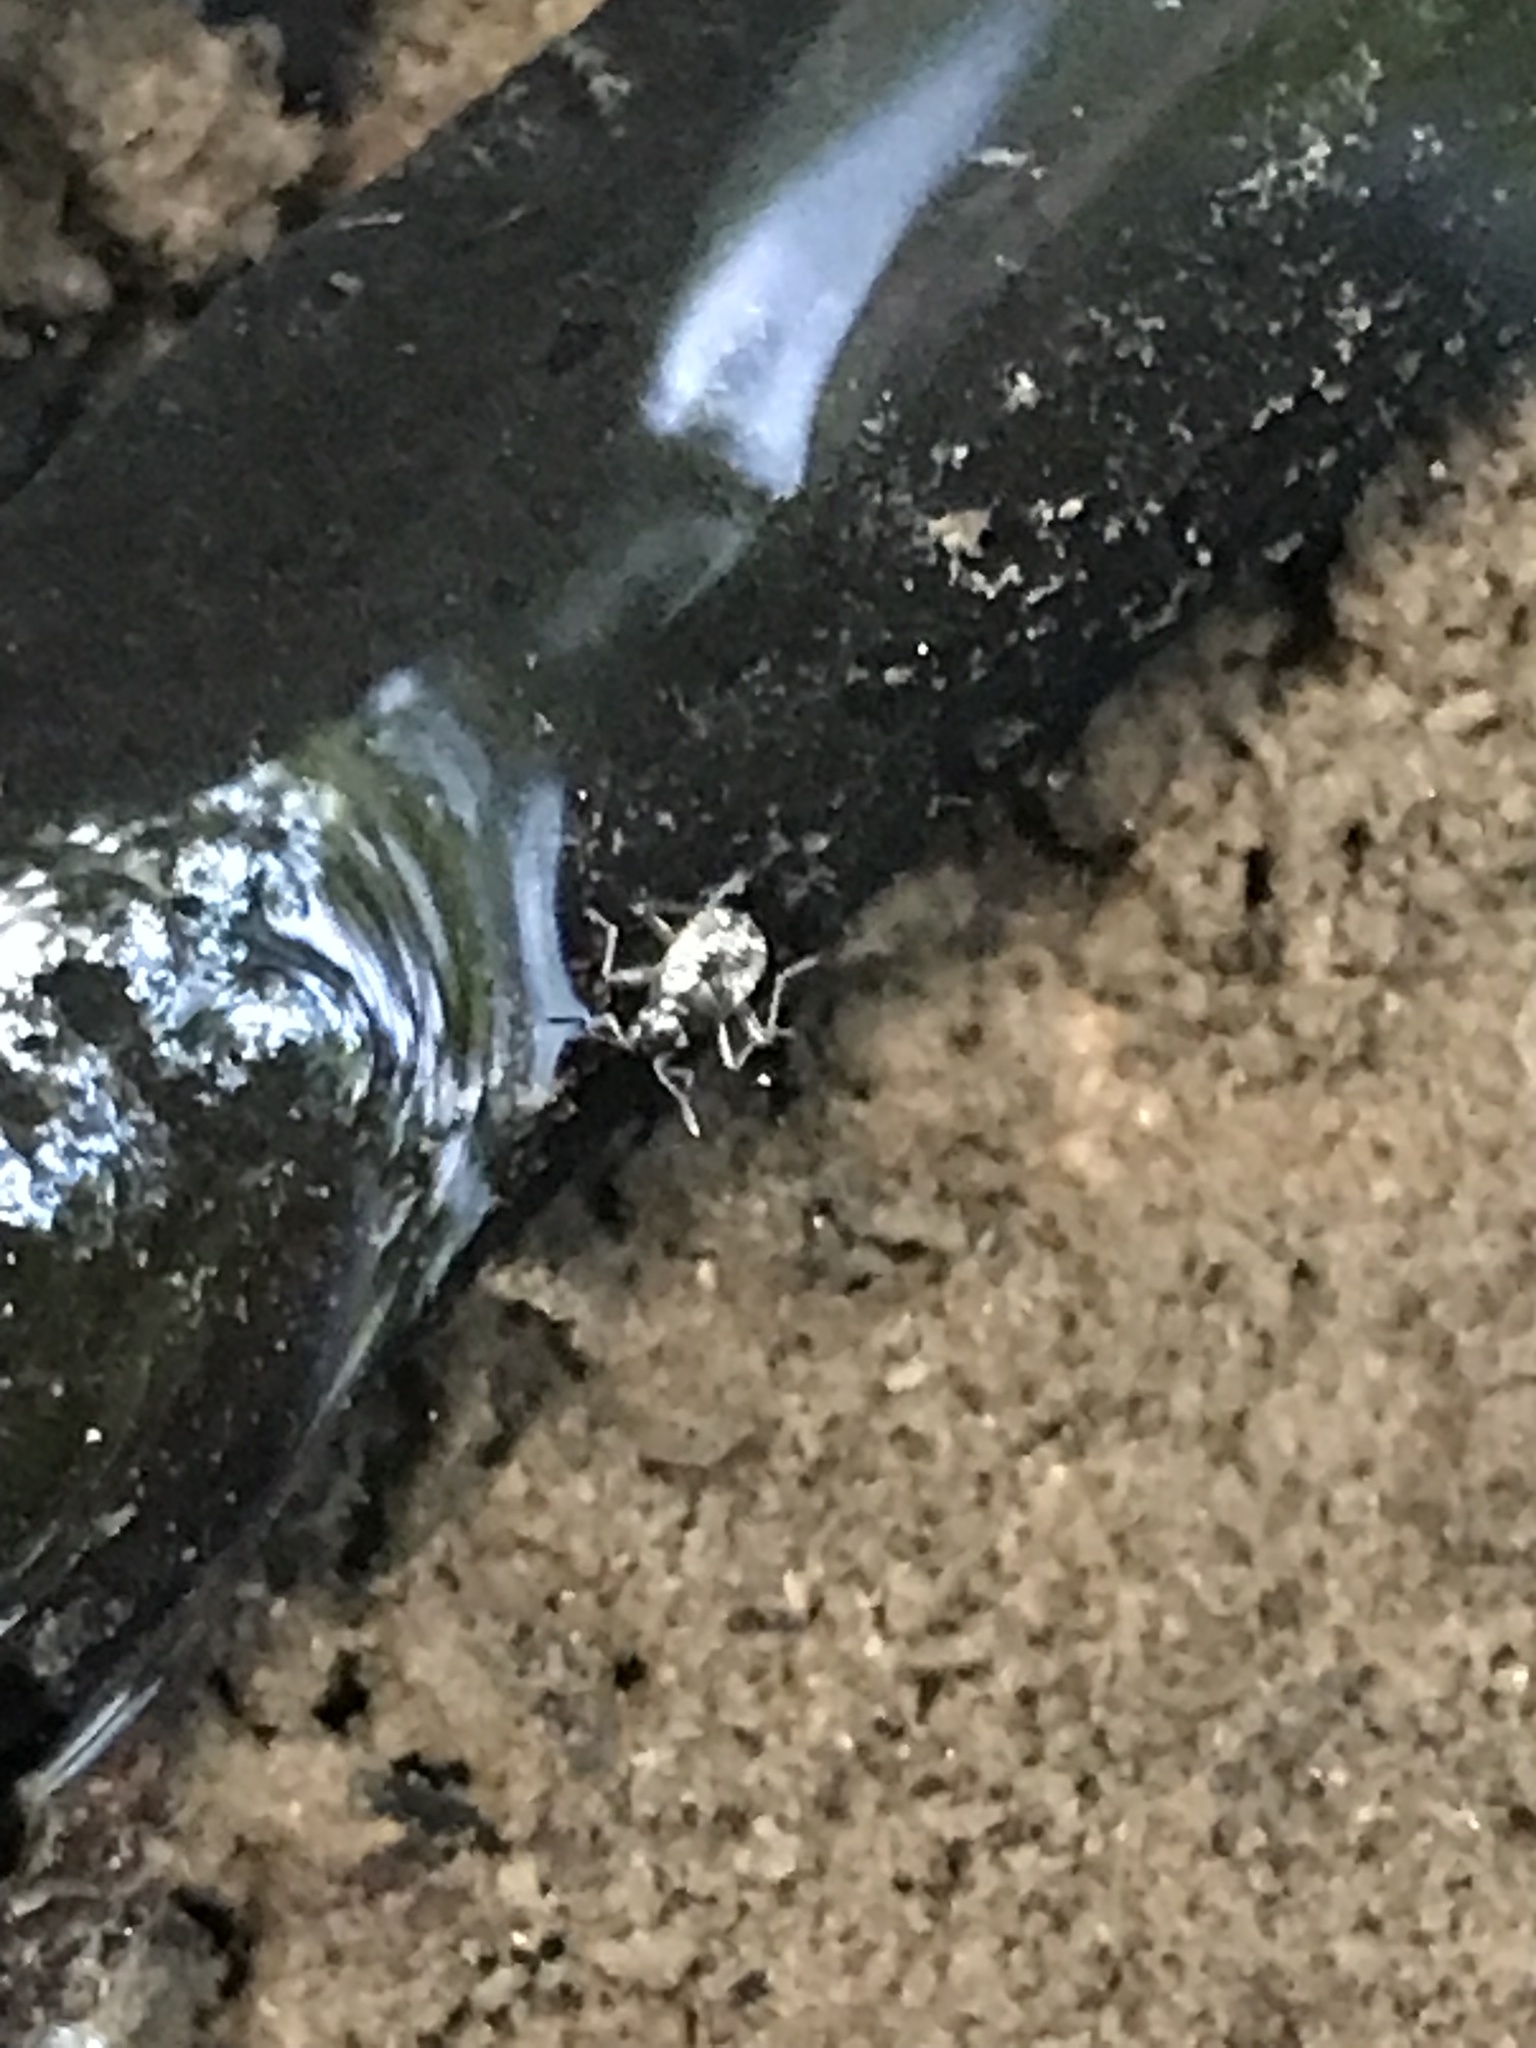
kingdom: Animalia
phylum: Arthropoda
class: Insecta
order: Hemiptera
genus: Kirkaldya
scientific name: Kirkaldya
